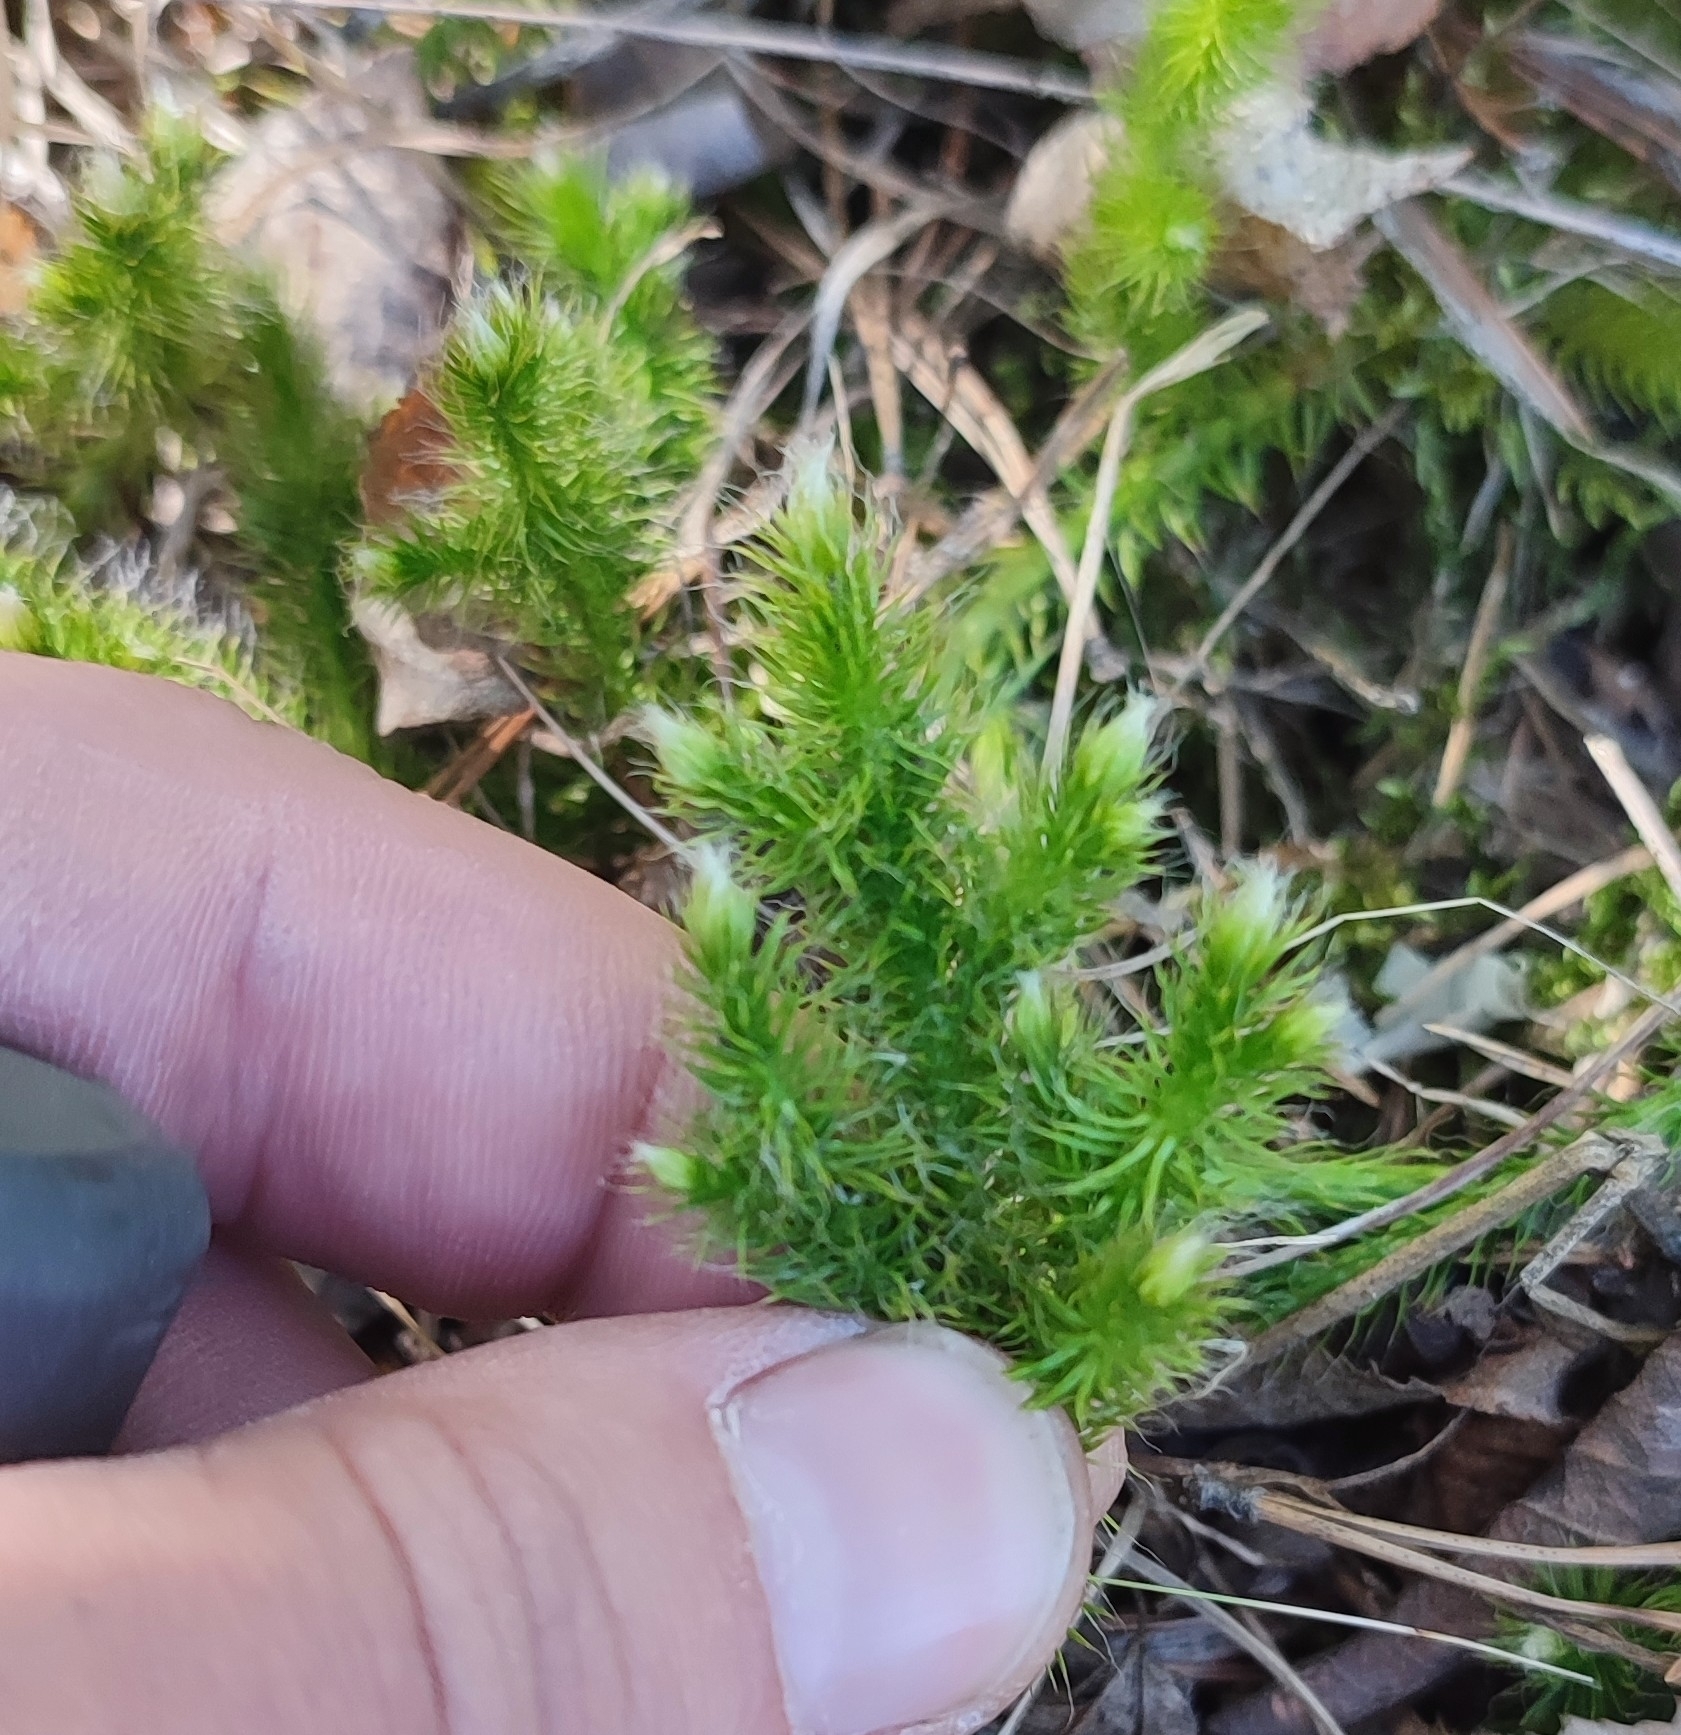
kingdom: Plantae
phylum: Tracheophyta
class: Lycopodiopsida
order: Lycopodiales
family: Lycopodiaceae
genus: Lycopodium
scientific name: Lycopodium clavatum
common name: Stag's-horn clubmoss
